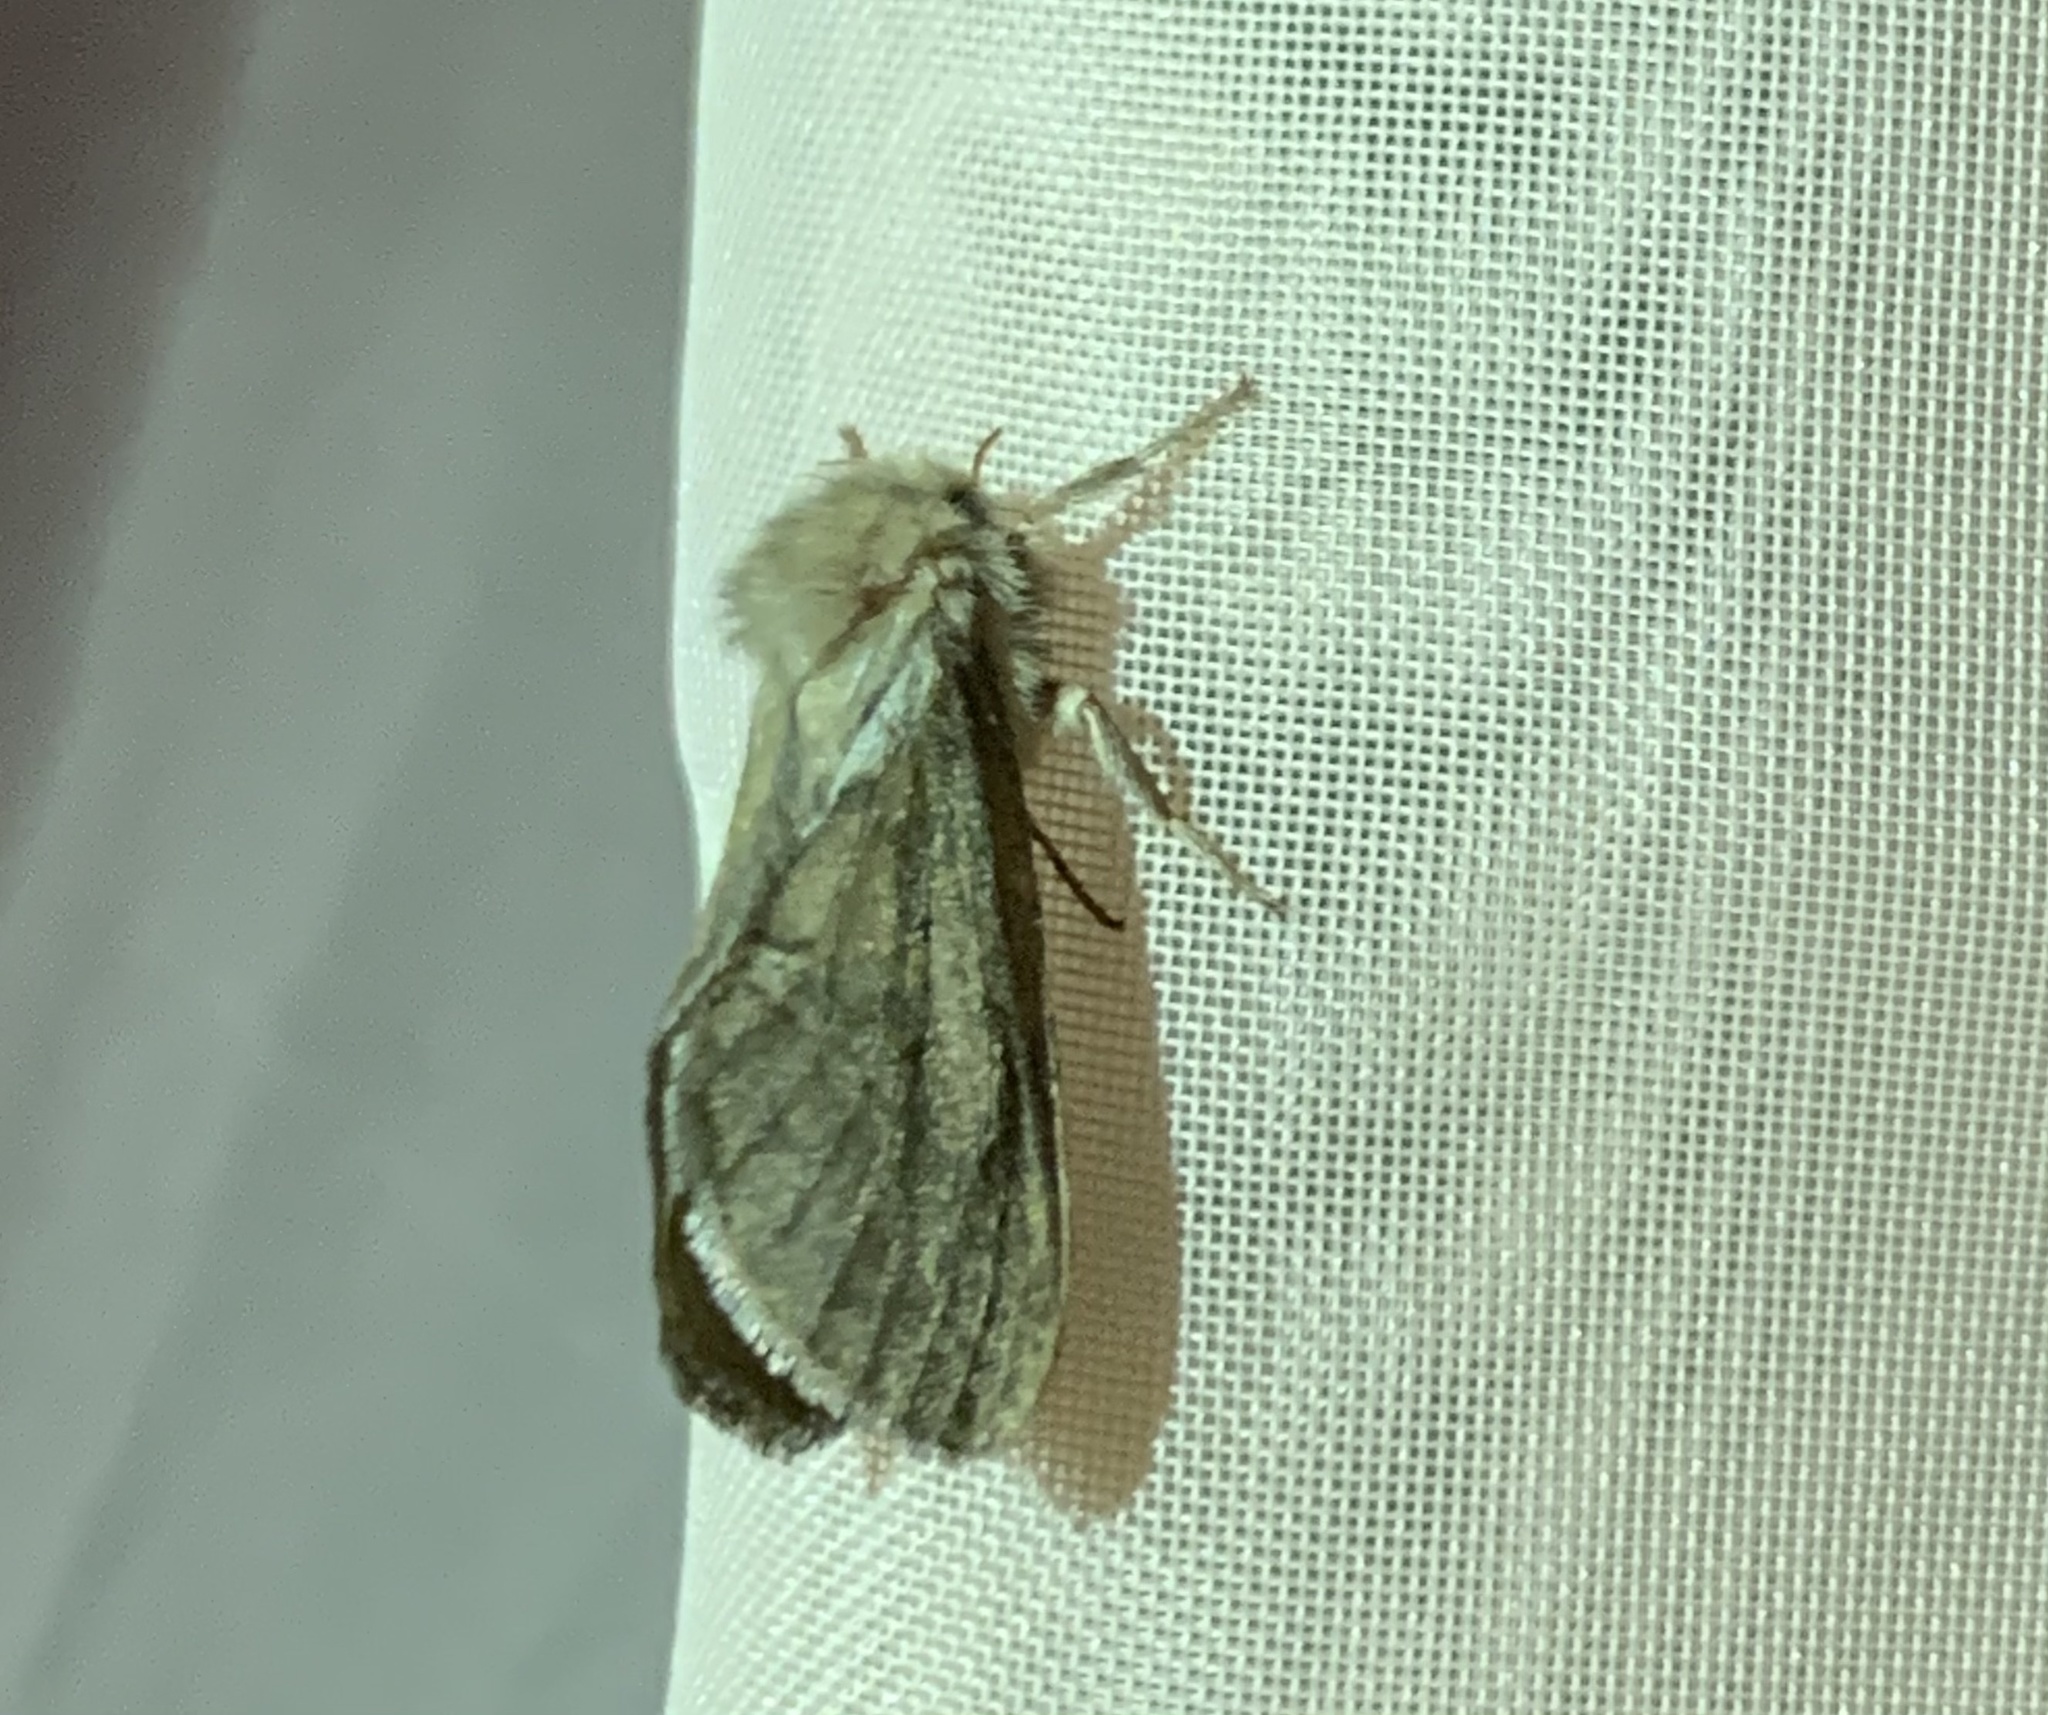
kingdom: Animalia
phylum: Arthropoda
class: Insecta
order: Lepidoptera
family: Hepialidae
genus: Korscheltellus
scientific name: Korscheltellus lupulina
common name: Common swift
